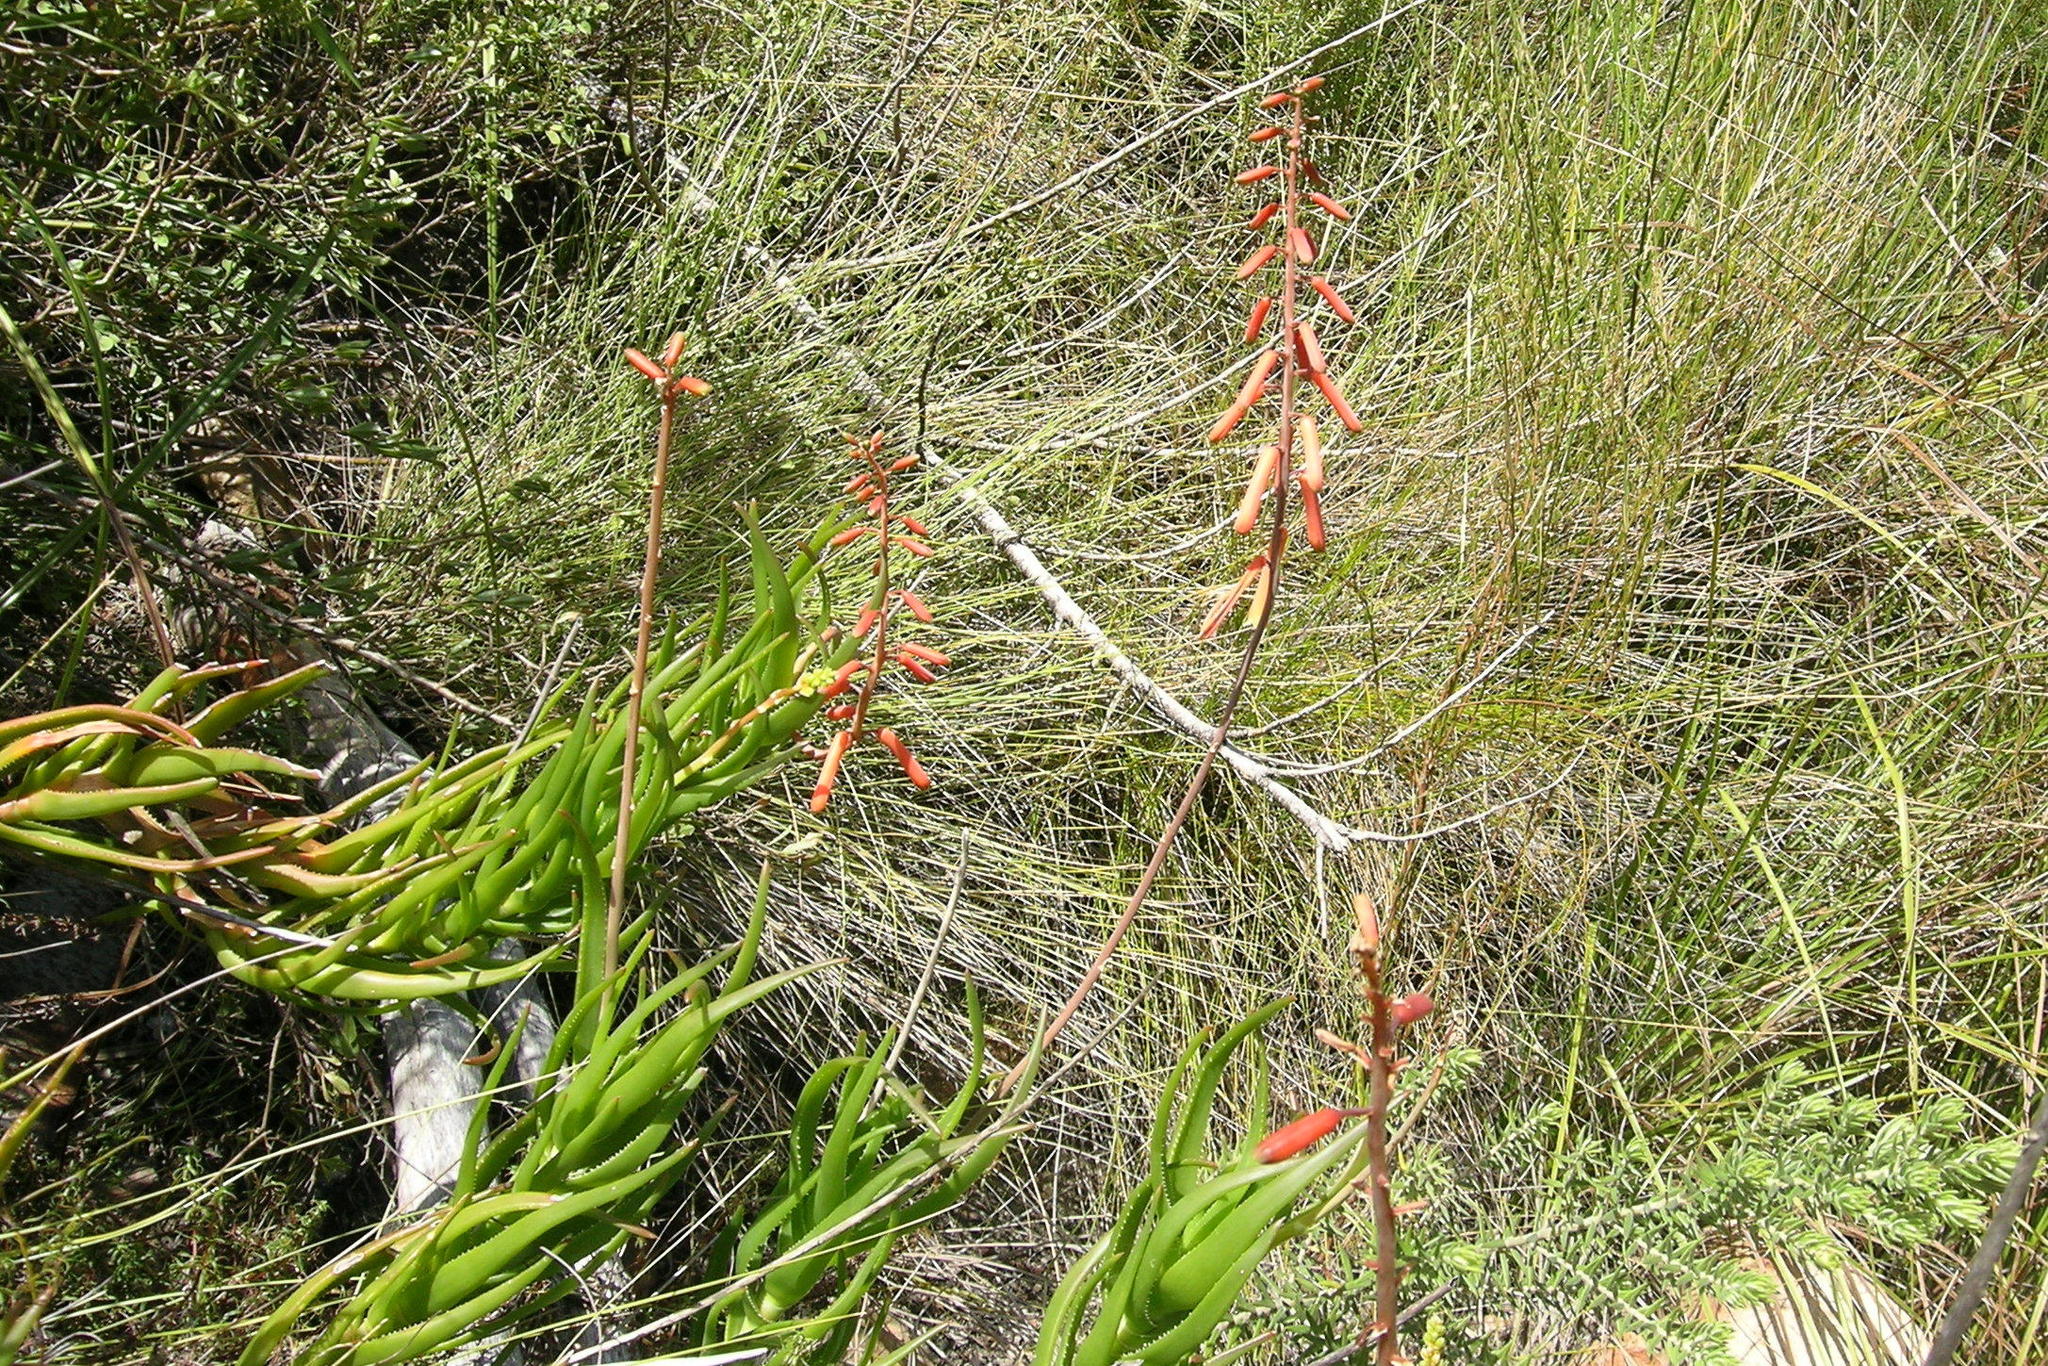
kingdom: Plantae
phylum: Tracheophyta
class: Liliopsida
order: Asparagales
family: Asphodelaceae
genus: Aloiampelos
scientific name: Aloiampelos decumbens
